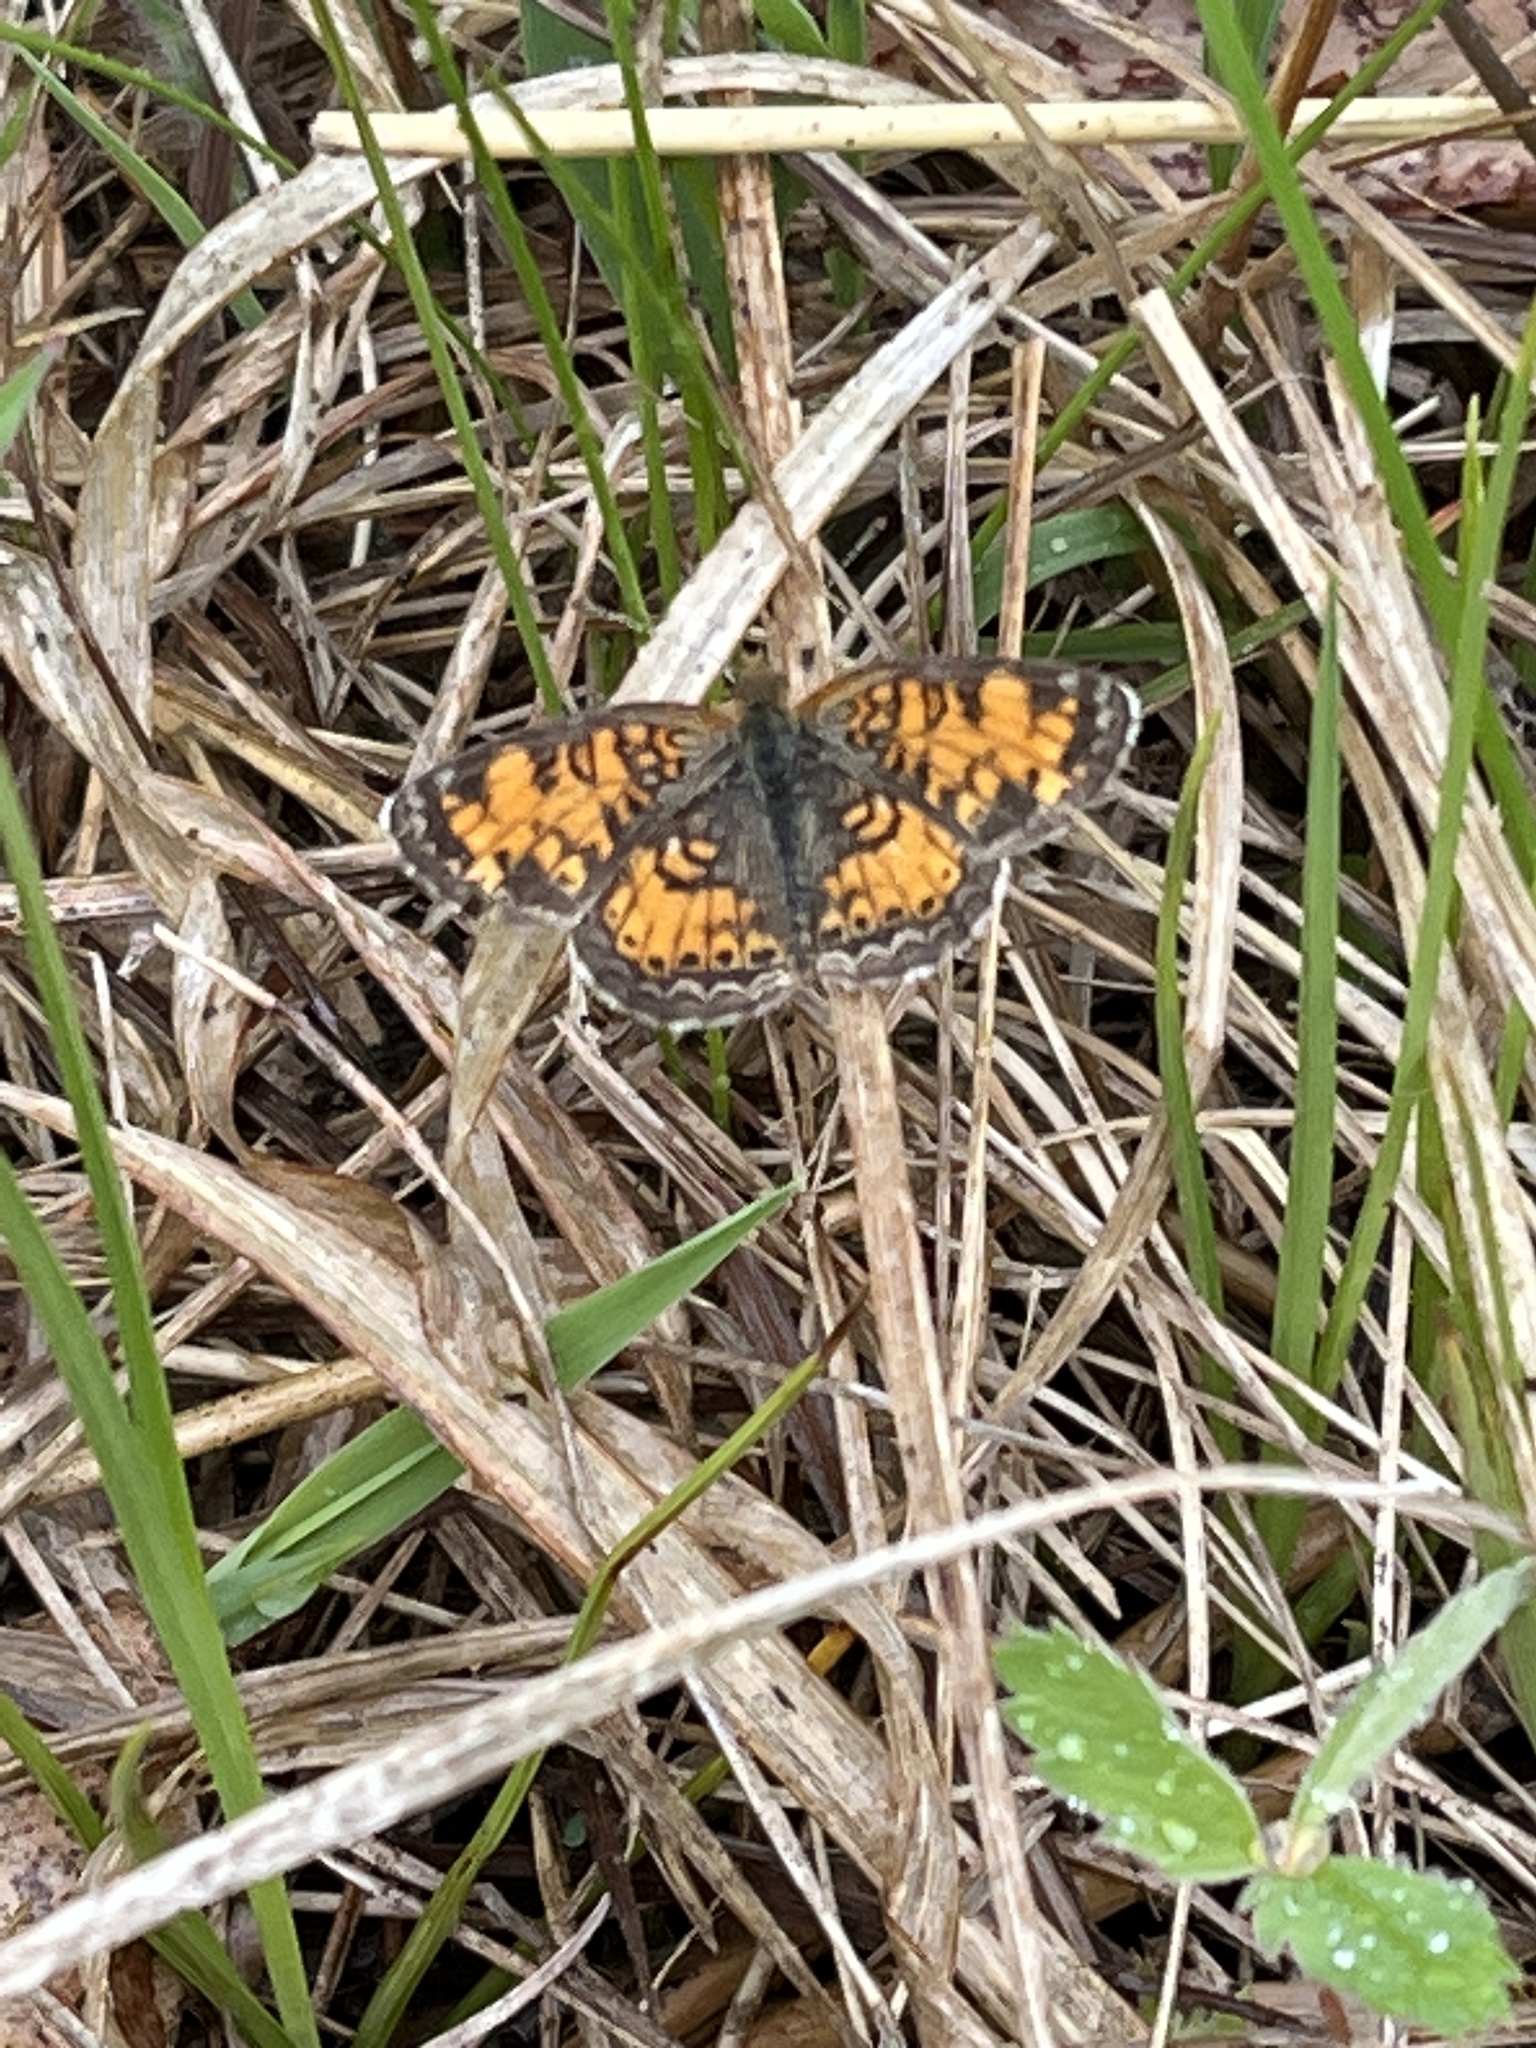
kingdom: Animalia
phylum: Arthropoda
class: Insecta
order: Lepidoptera
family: Nymphalidae
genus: Phyciodes
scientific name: Phyciodes tharos
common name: Pearl crescent
